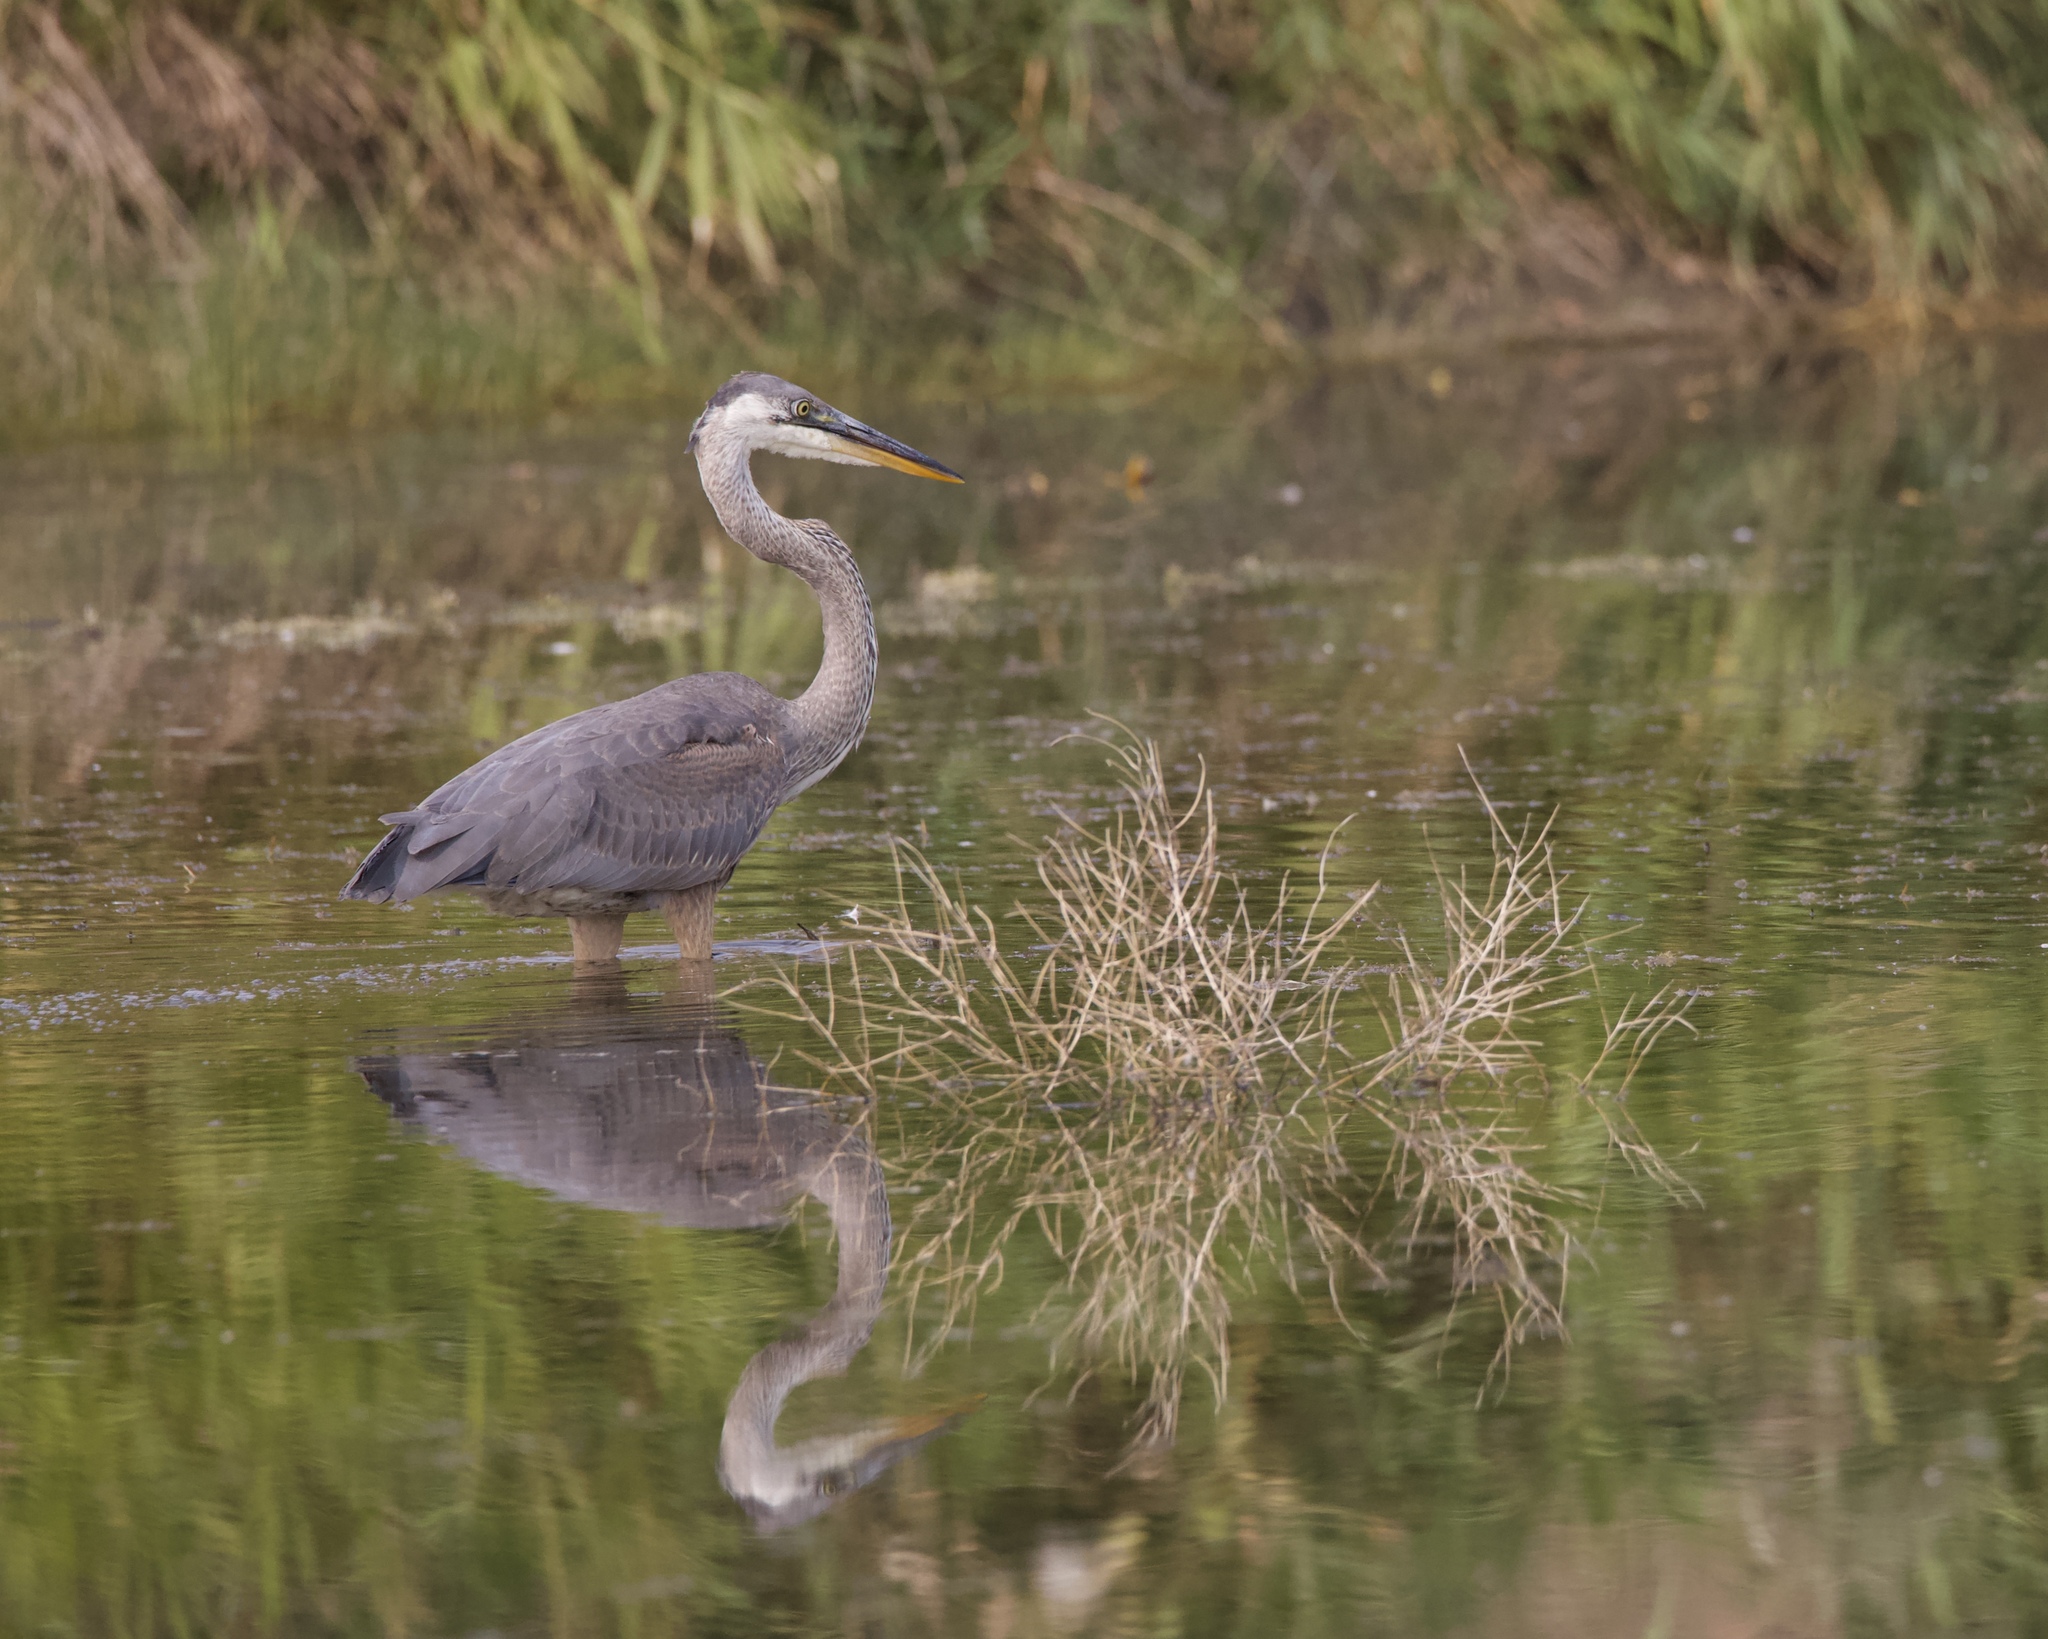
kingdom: Animalia
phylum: Chordata
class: Aves
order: Pelecaniformes
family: Ardeidae
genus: Ardea
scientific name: Ardea herodias
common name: Great blue heron
